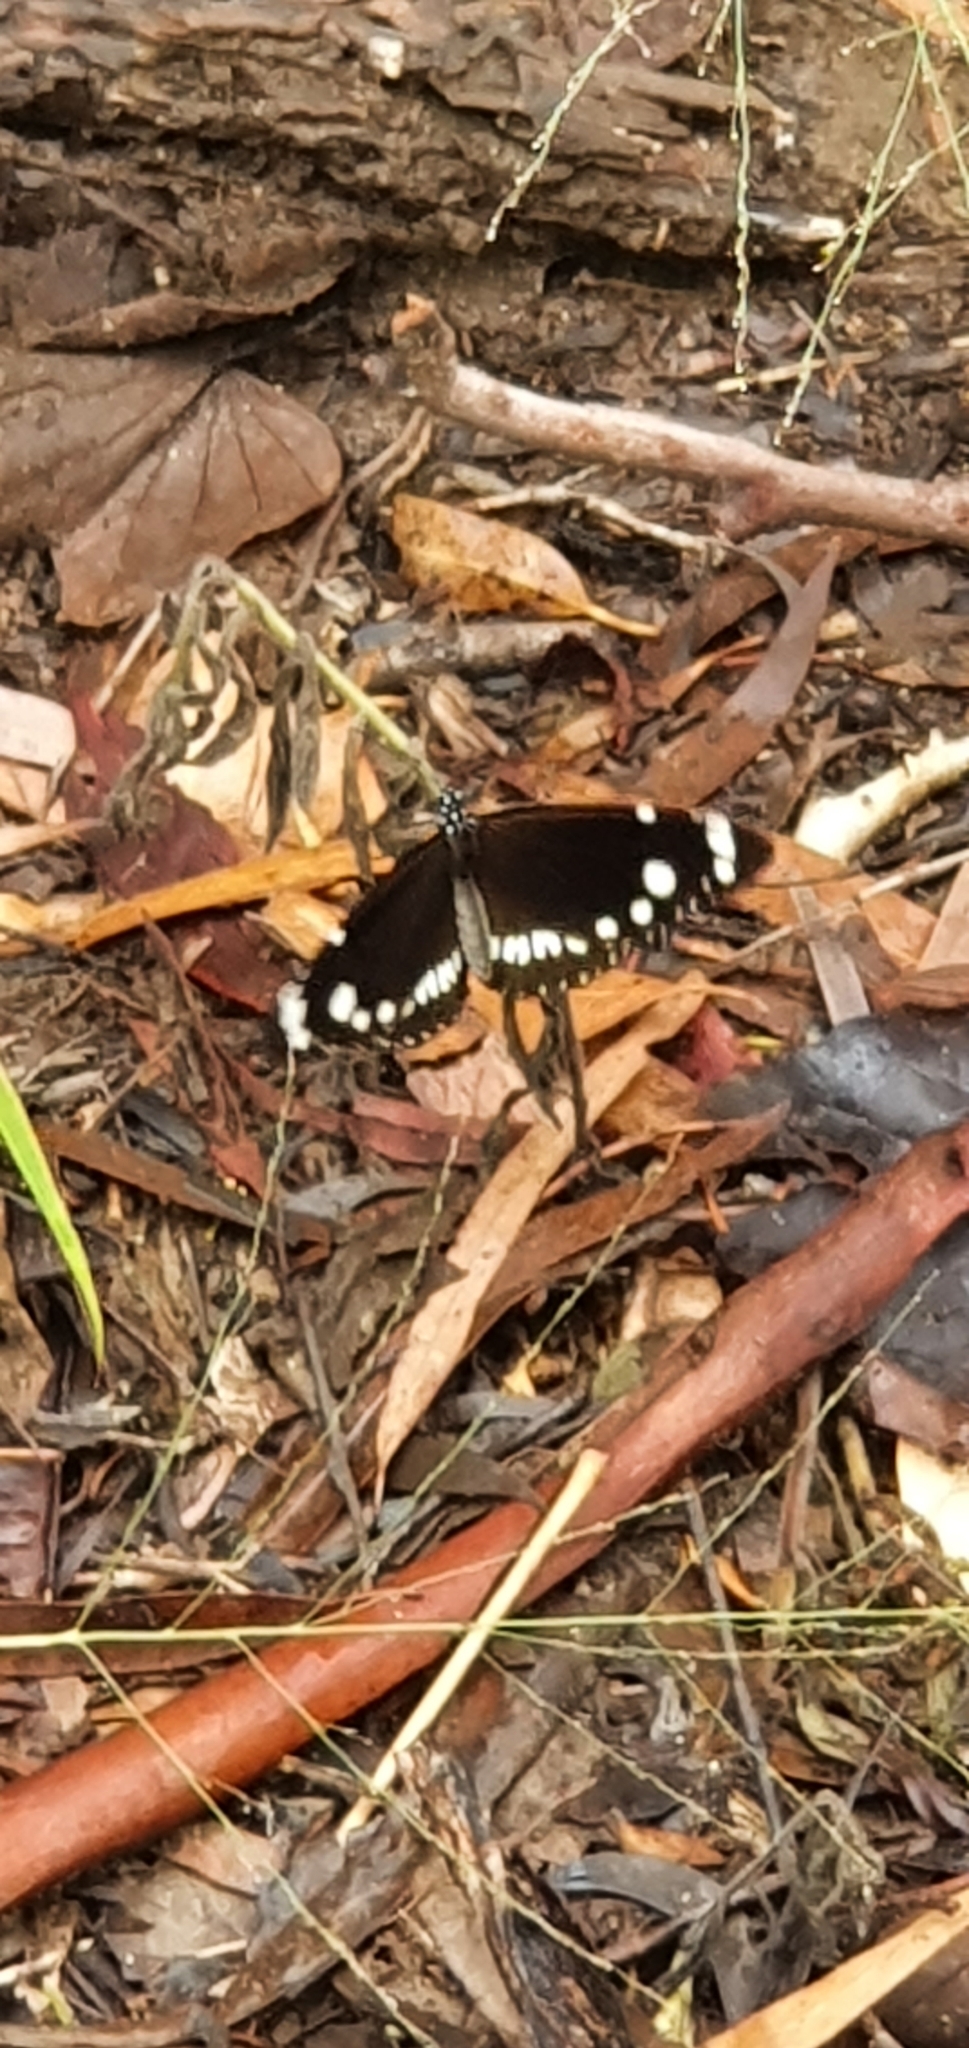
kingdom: Animalia
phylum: Arthropoda
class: Insecta
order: Lepidoptera
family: Nymphalidae
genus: Euploea
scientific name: Euploea core
